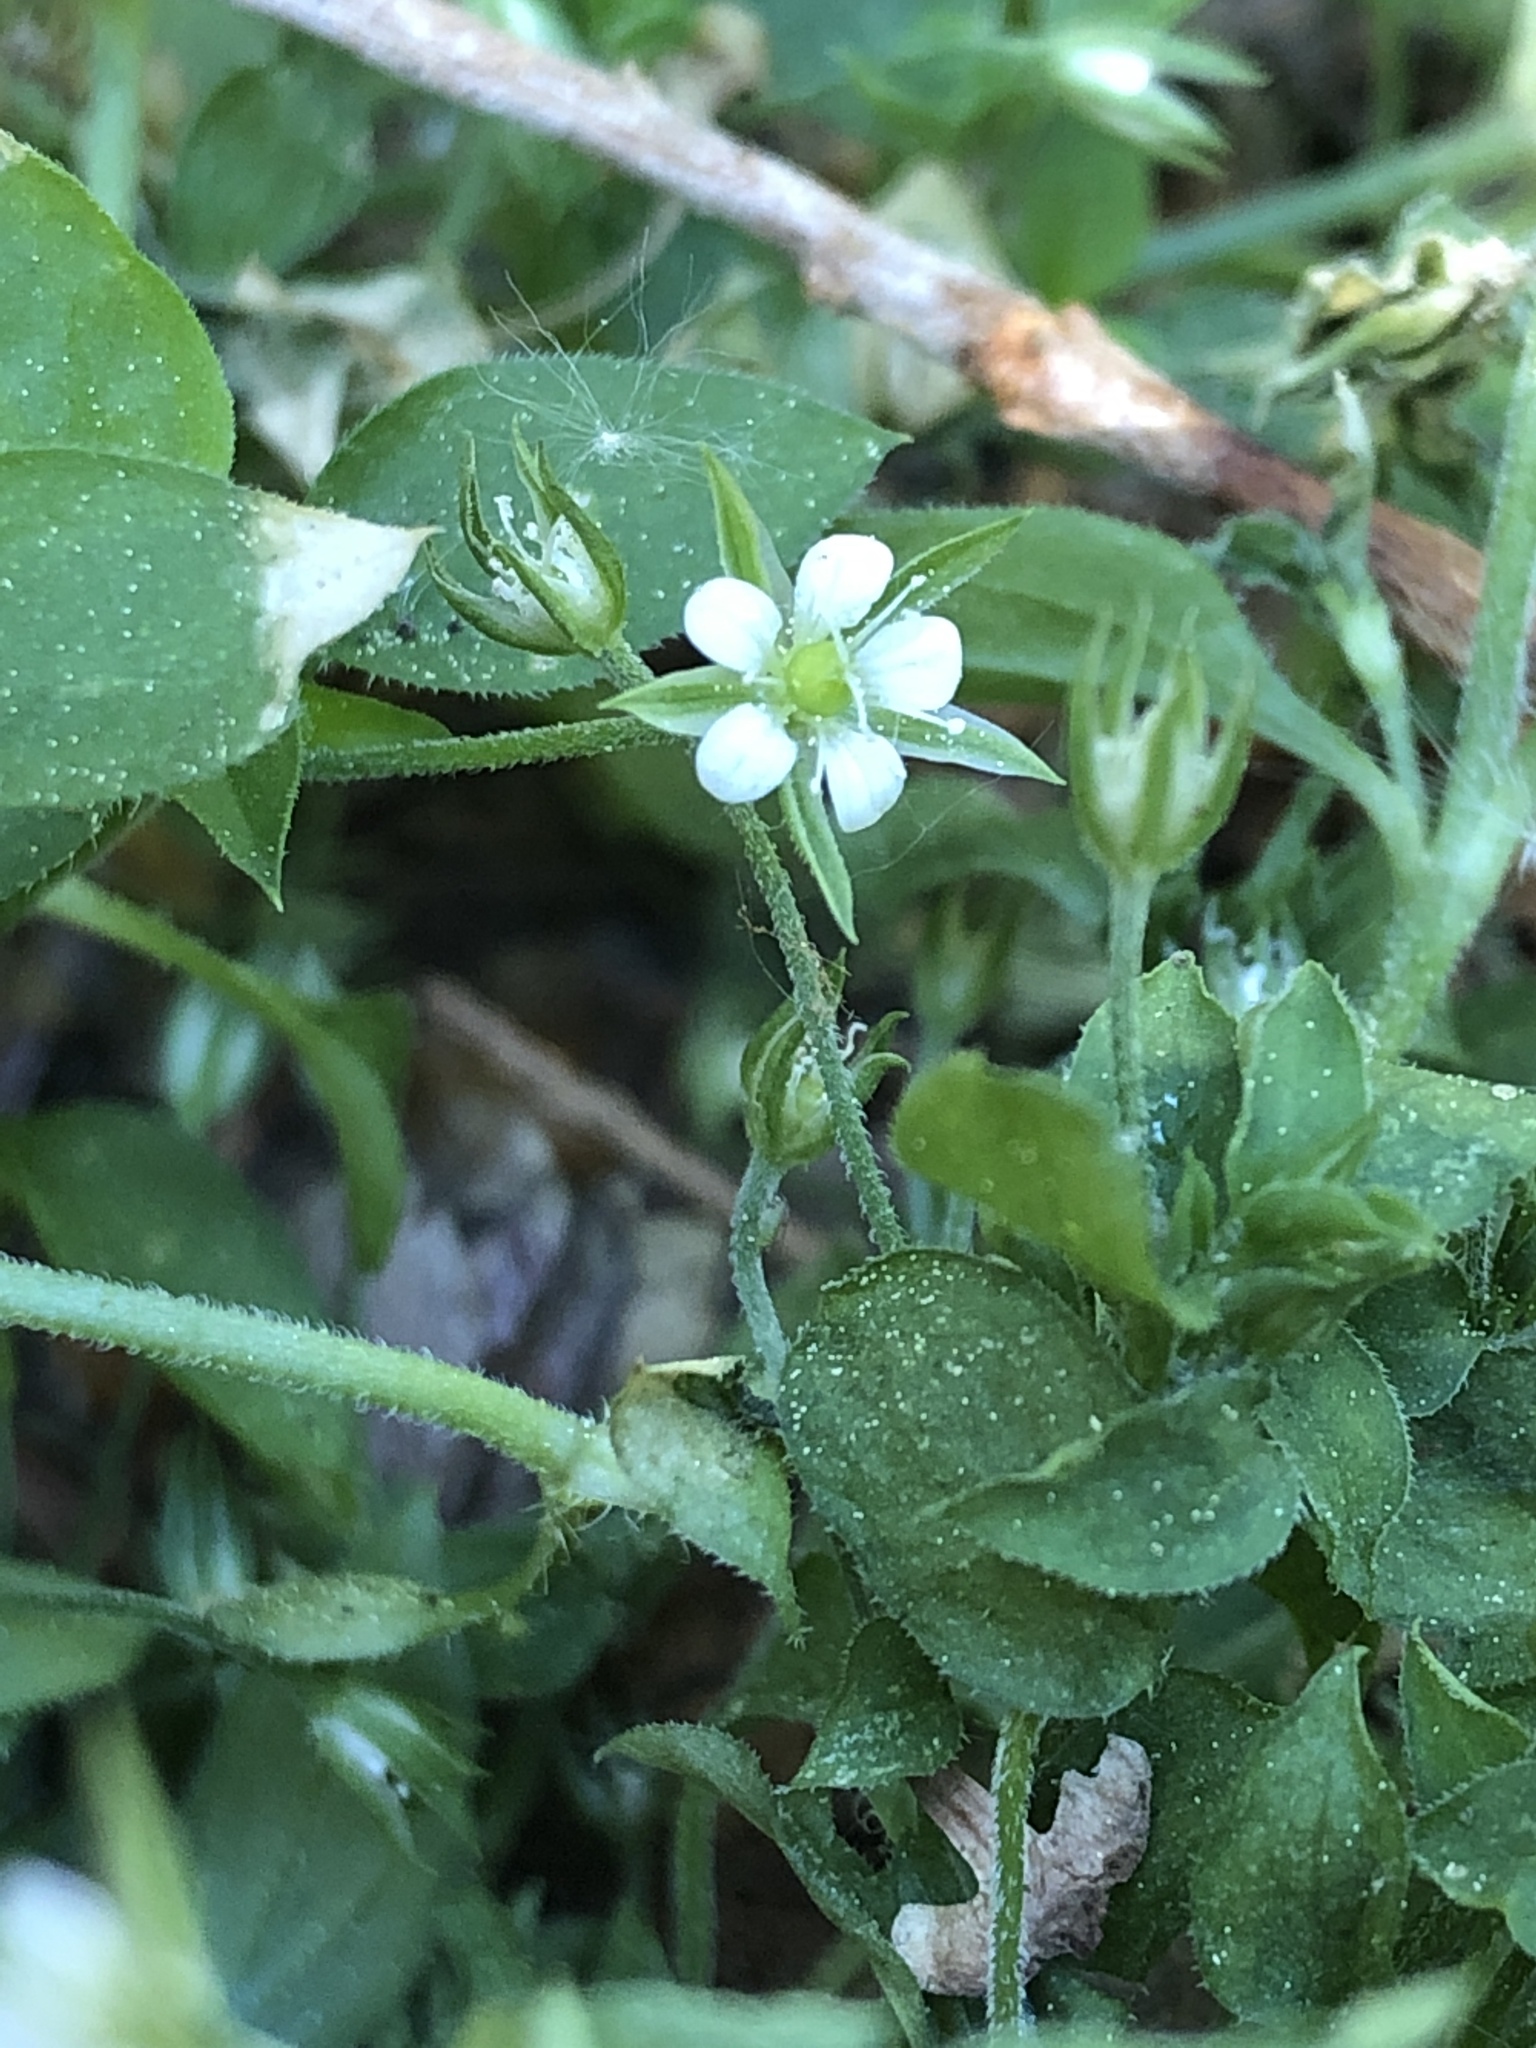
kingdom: Plantae
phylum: Tracheophyta
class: Magnoliopsida
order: Caryophyllales
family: Caryophyllaceae
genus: Moehringia
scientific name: Moehringia trinervia
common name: Three-nerved sandwort
